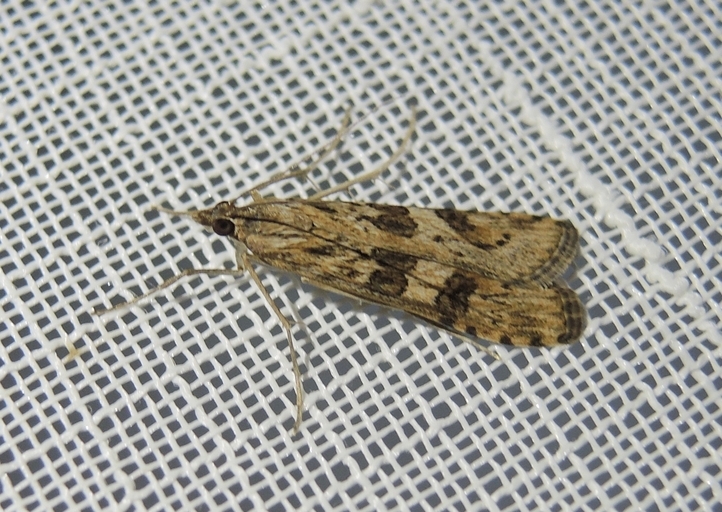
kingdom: Animalia
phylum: Arthropoda
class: Insecta
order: Lepidoptera
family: Crambidae
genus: Nomophila
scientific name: Nomophila noctuella
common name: Rush veneer
